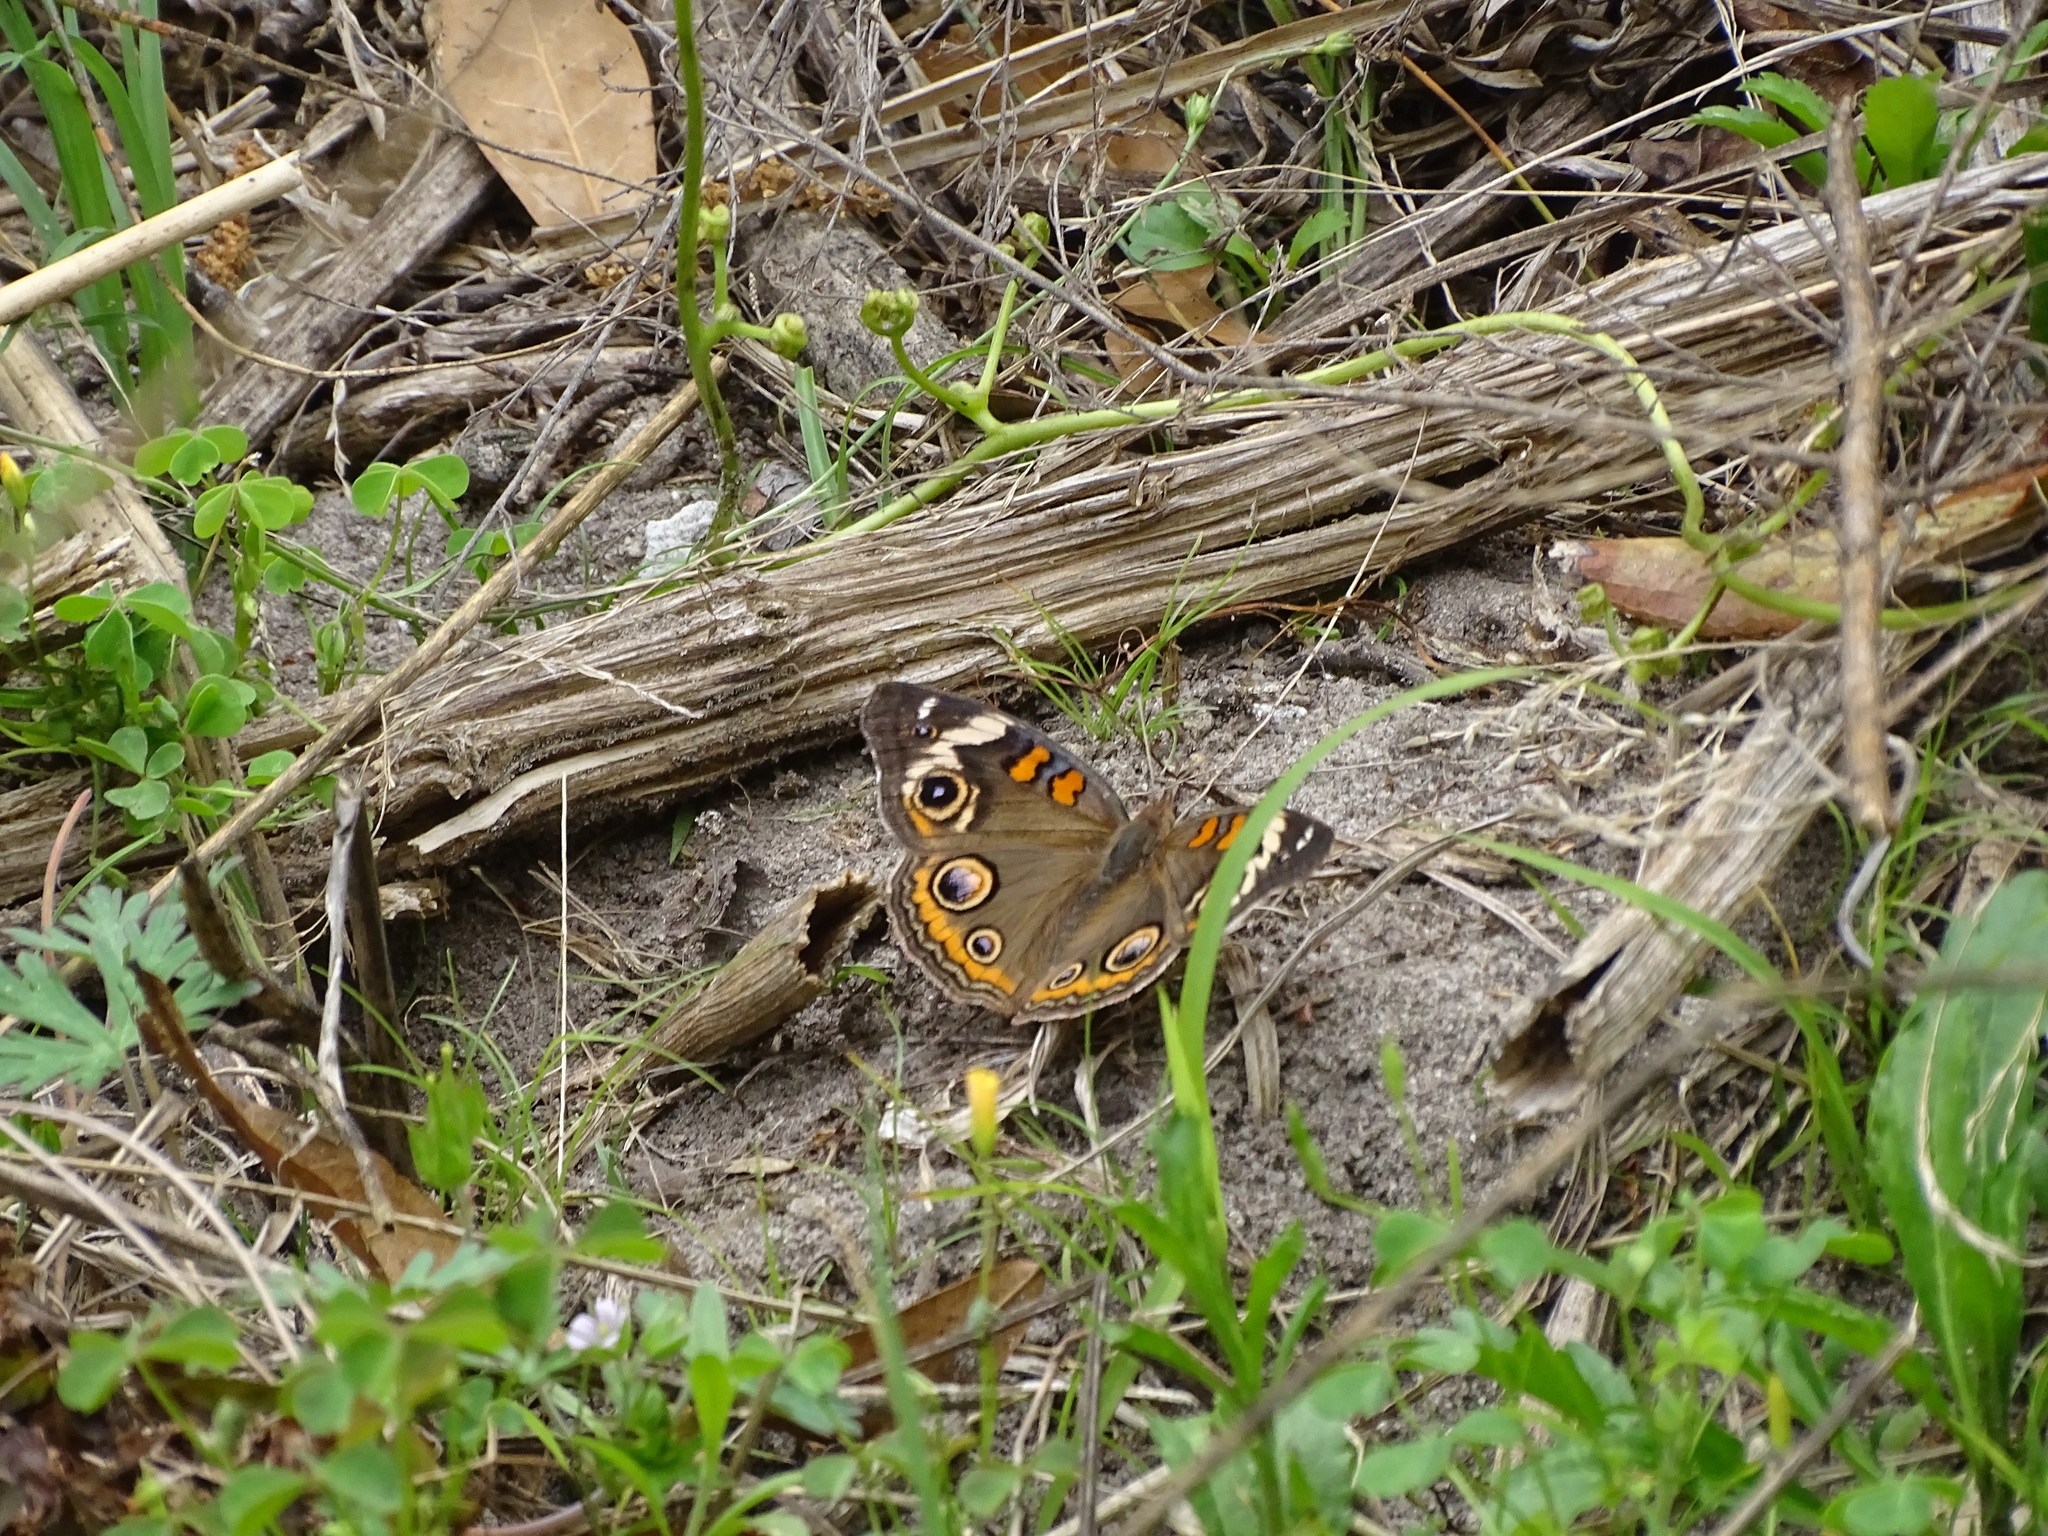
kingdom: Animalia
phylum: Arthropoda
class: Insecta
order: Lepidoptera
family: Nymphalidae
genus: Junonia
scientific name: Junonia coenia
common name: Common buckeye
